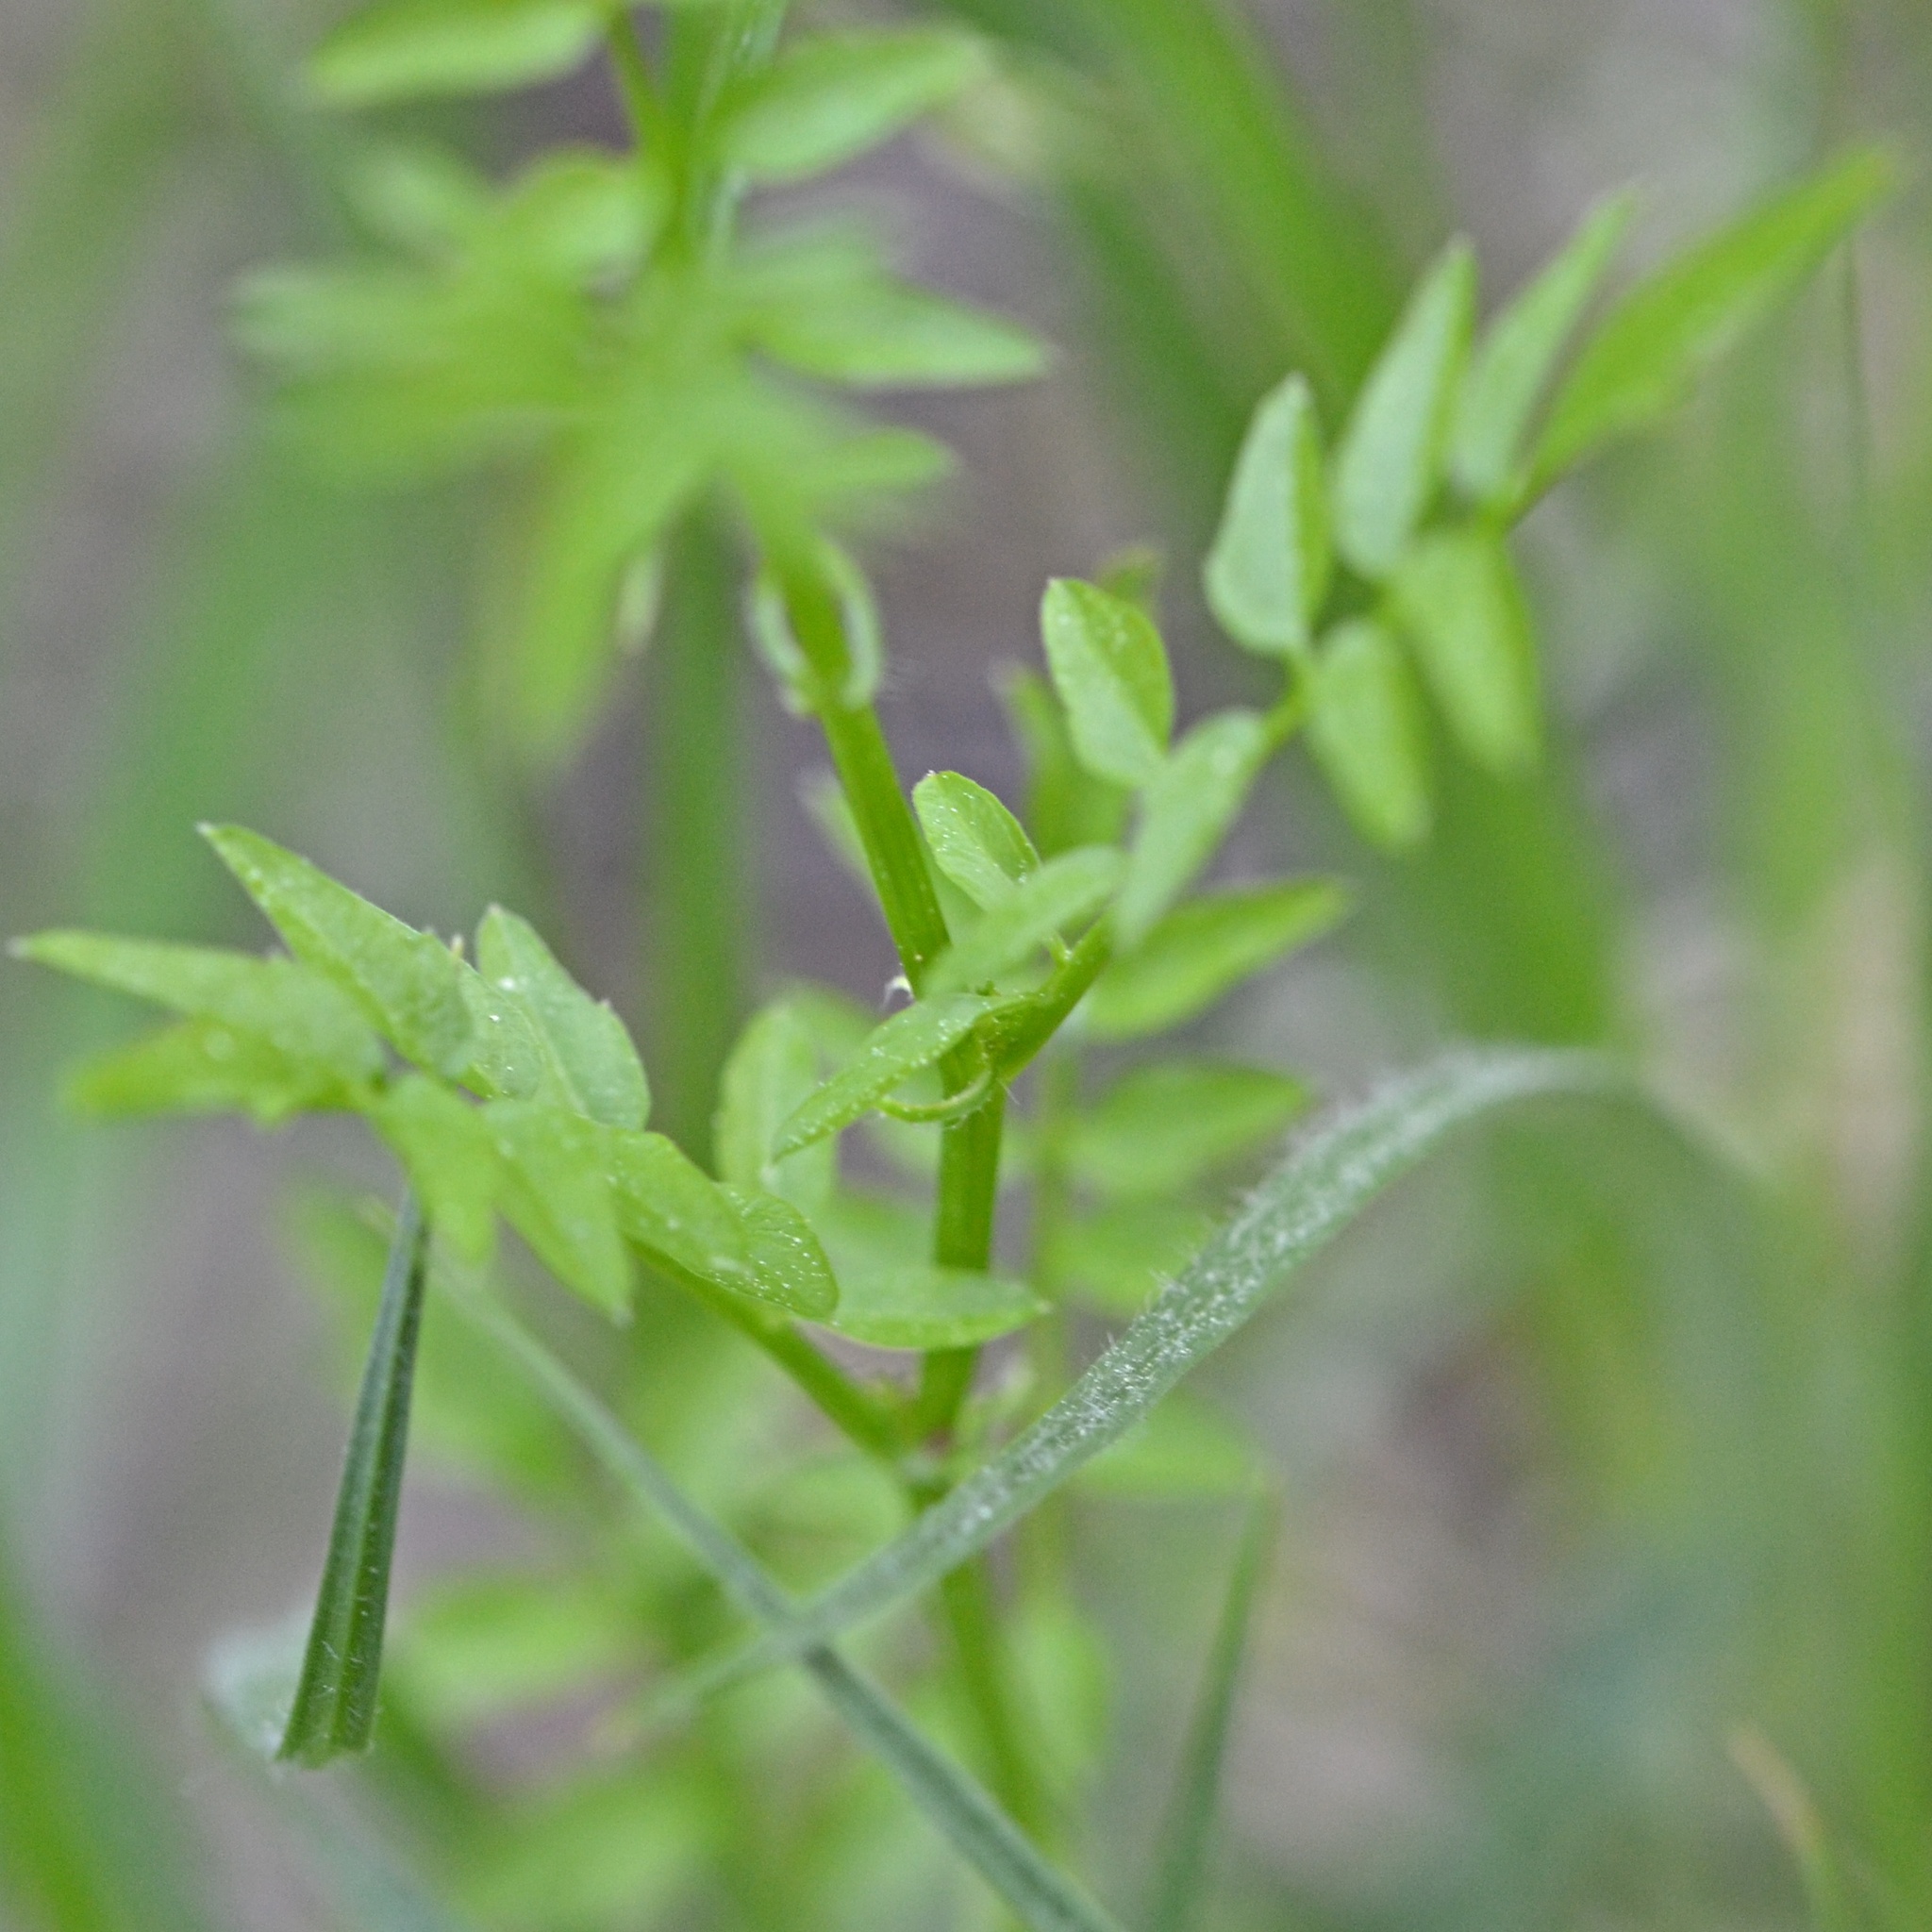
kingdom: Plantae
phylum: Tracheophyta
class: Magnoliopsida
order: Brassicales
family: Brassicaceae
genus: Cardamine
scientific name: Cardamine impatiens
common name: Narrow-leaved bitter-cress
